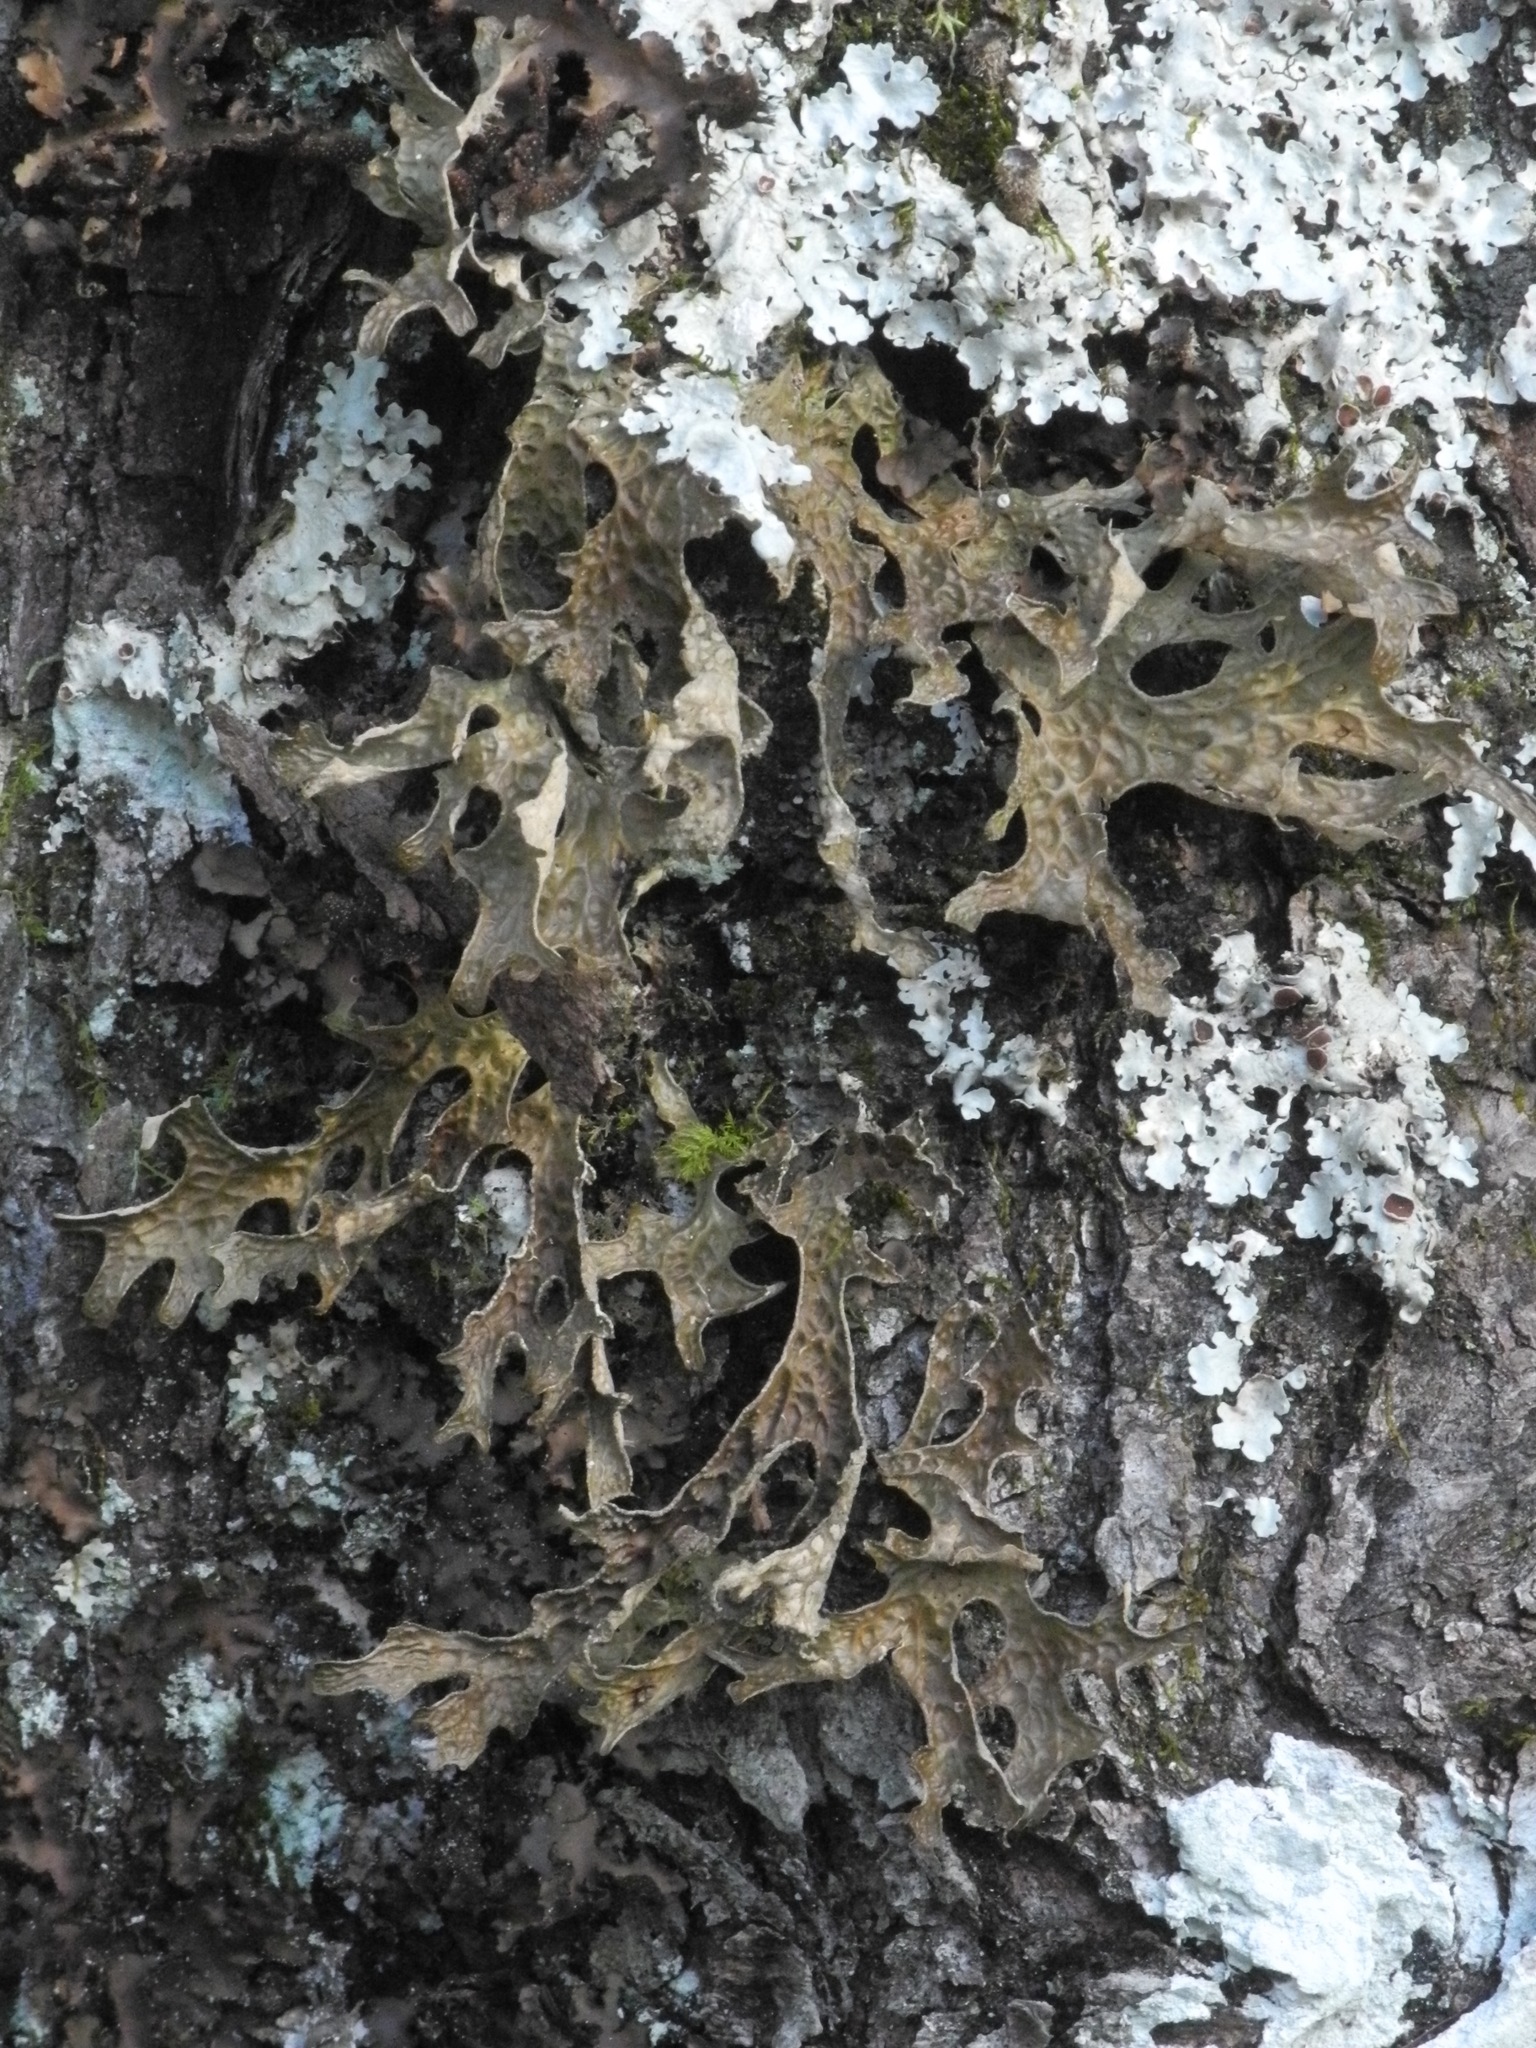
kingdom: Fungi
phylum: Ascomycota
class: Lecanoromycetes
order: Peltigerales
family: Lobariaceae
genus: Lobaria
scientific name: Lobaria pulmonaria
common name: Lungwort
